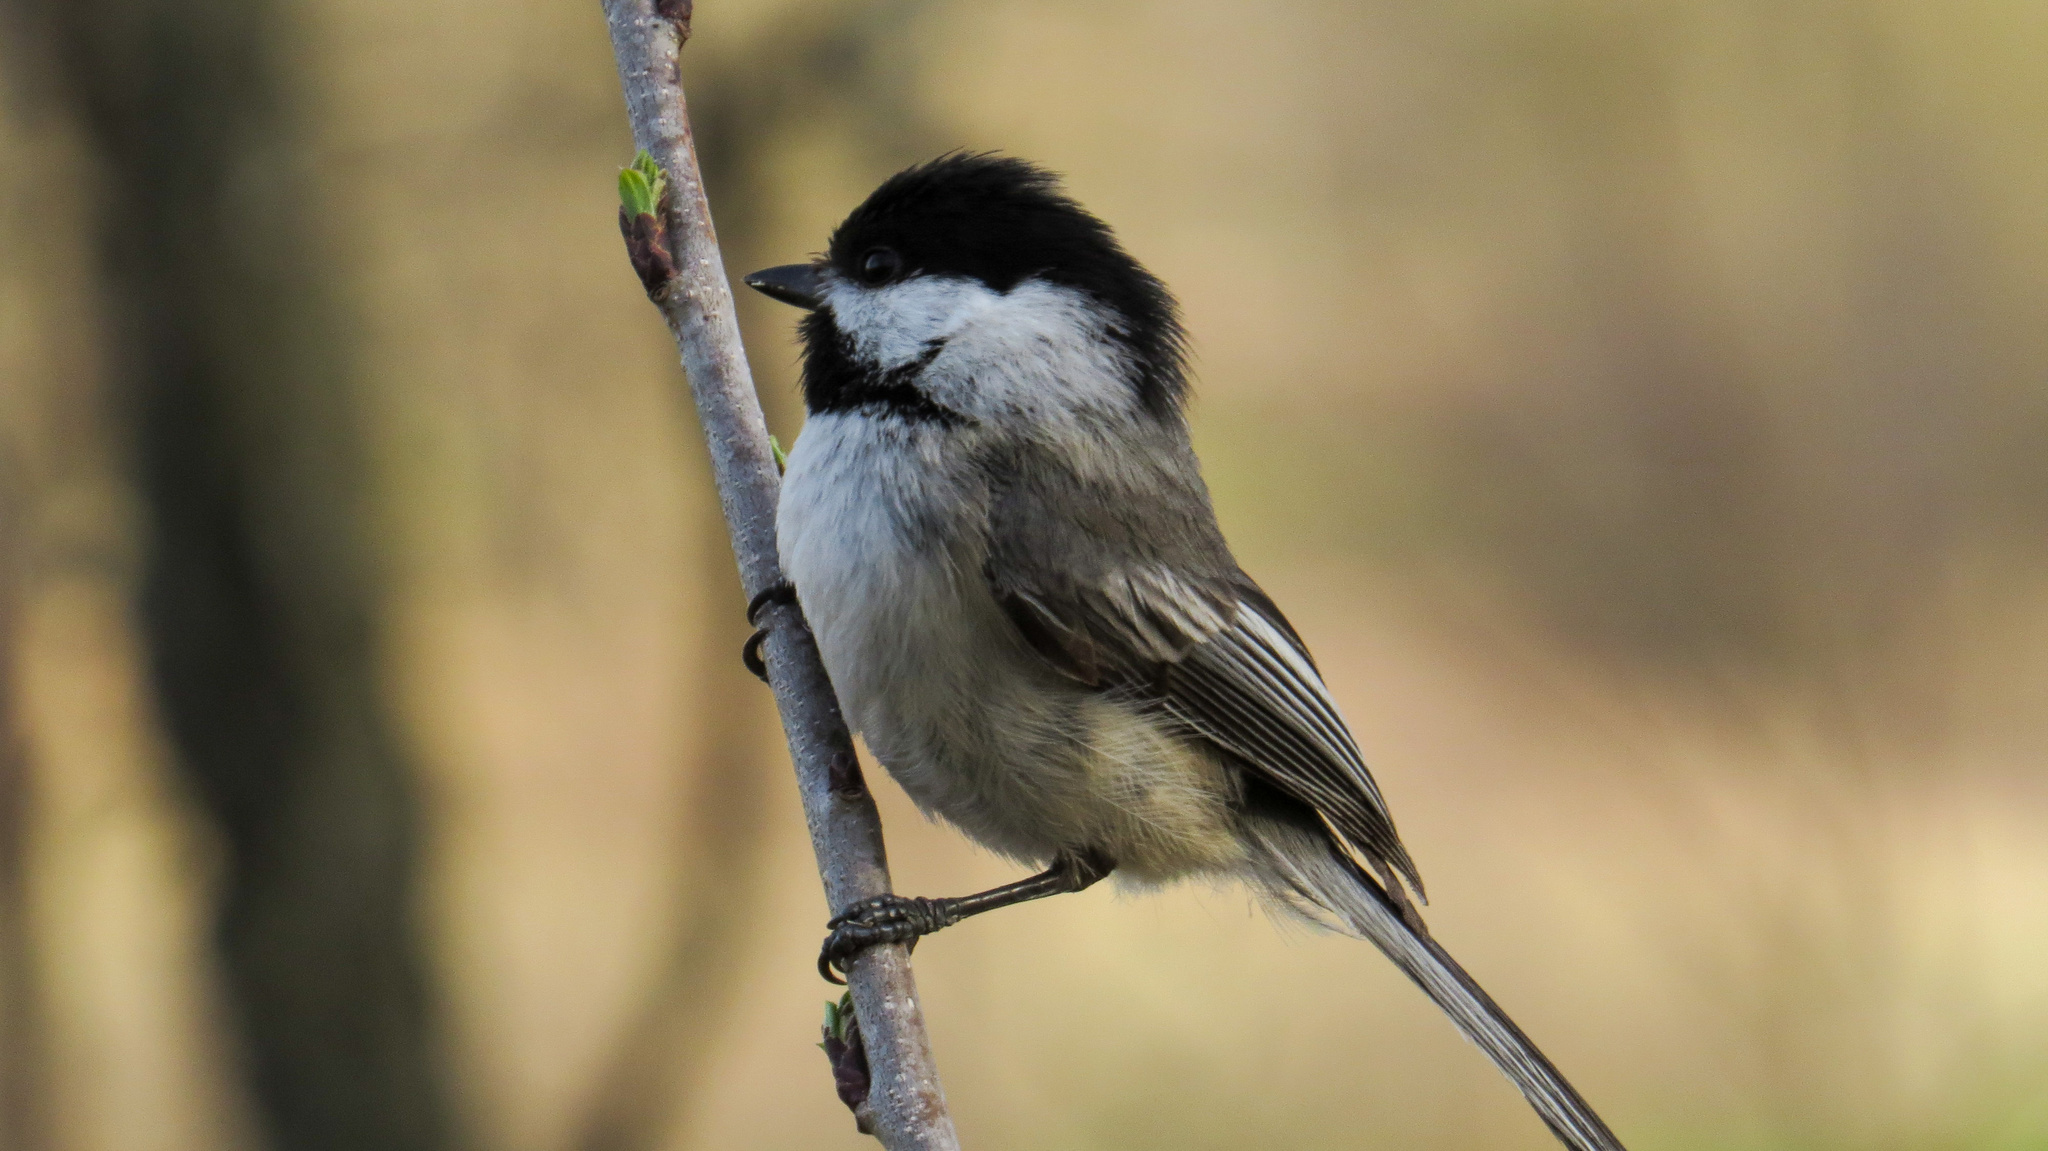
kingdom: Animalia
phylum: Chordata
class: Aves
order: Passeriformes
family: Paridae
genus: Poecile
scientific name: Poecile atricapillus
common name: Black-capped chickadee
